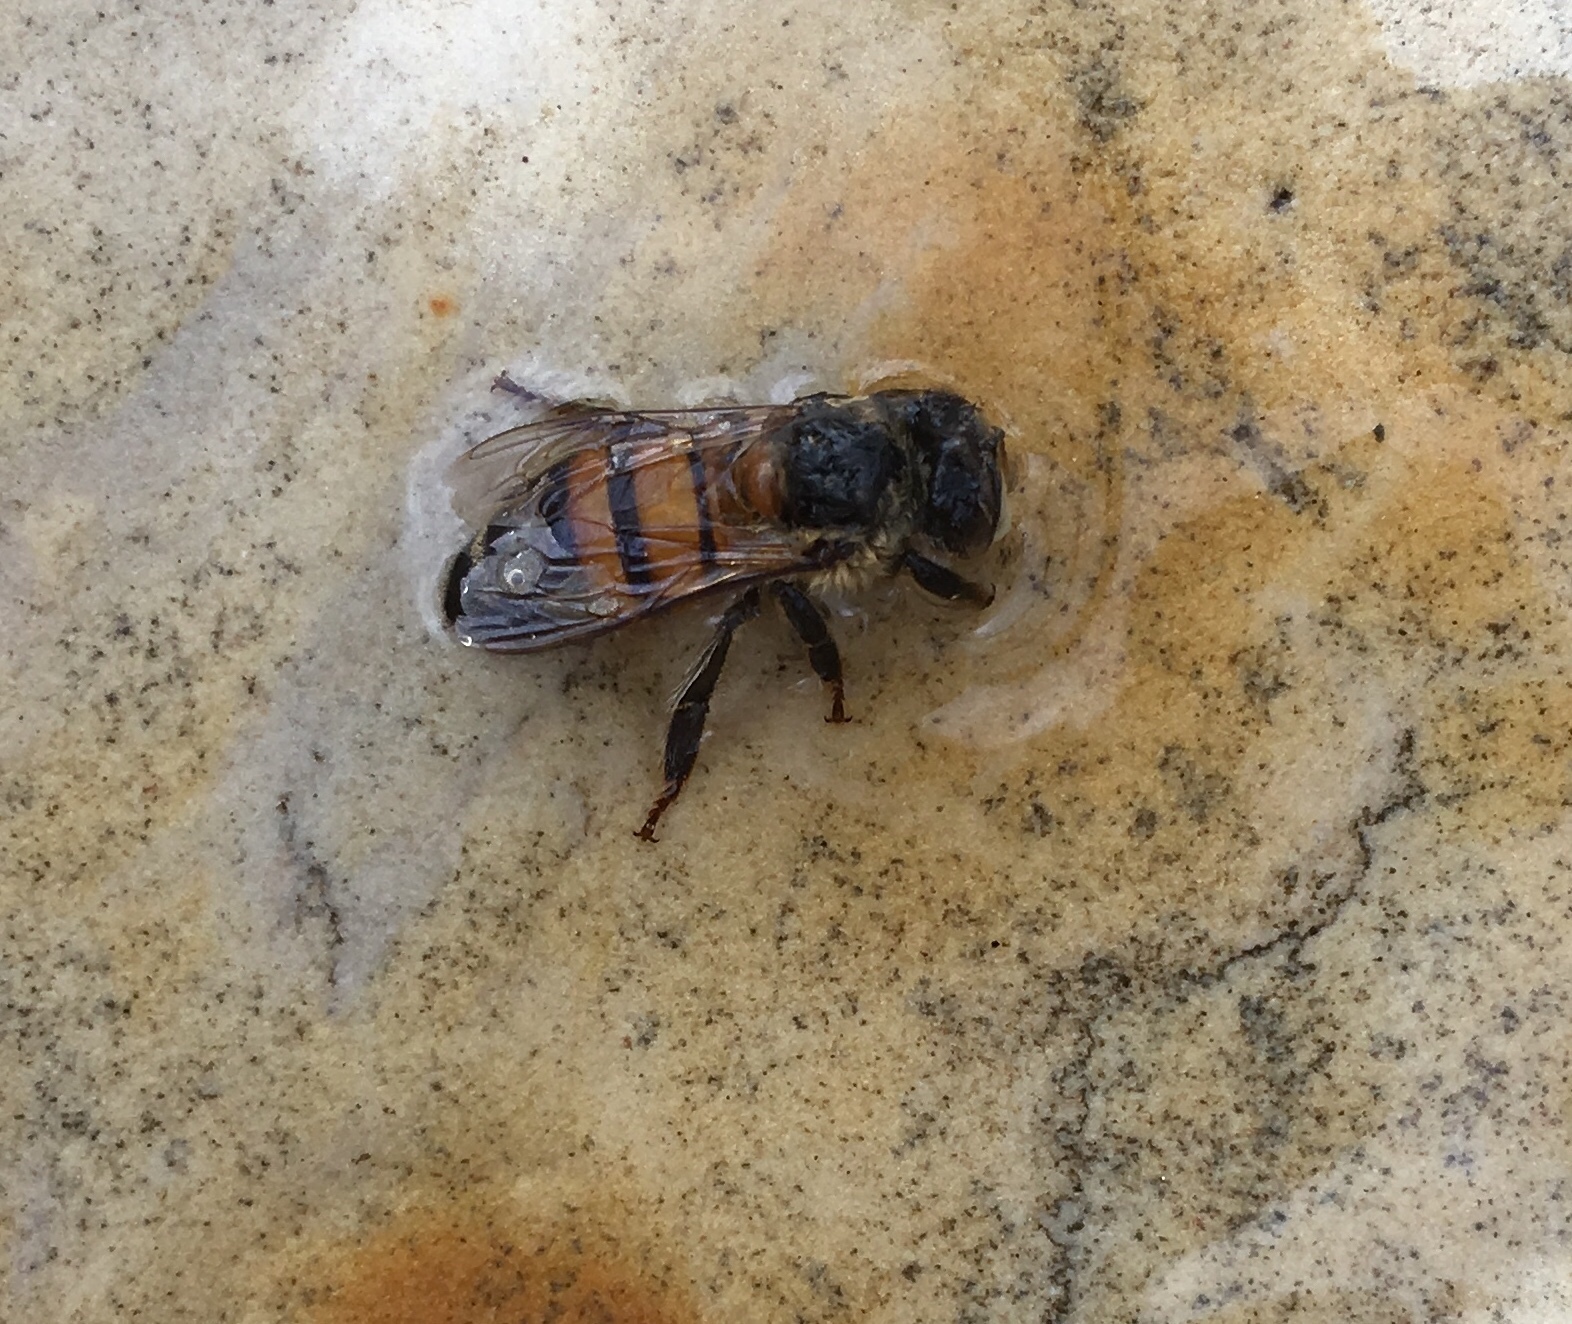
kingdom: Animalia
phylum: Arthropoda
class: Insecta
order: Hymenoptera
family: Apidae
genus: Apis
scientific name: Apis mellifera
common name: Honey bee
